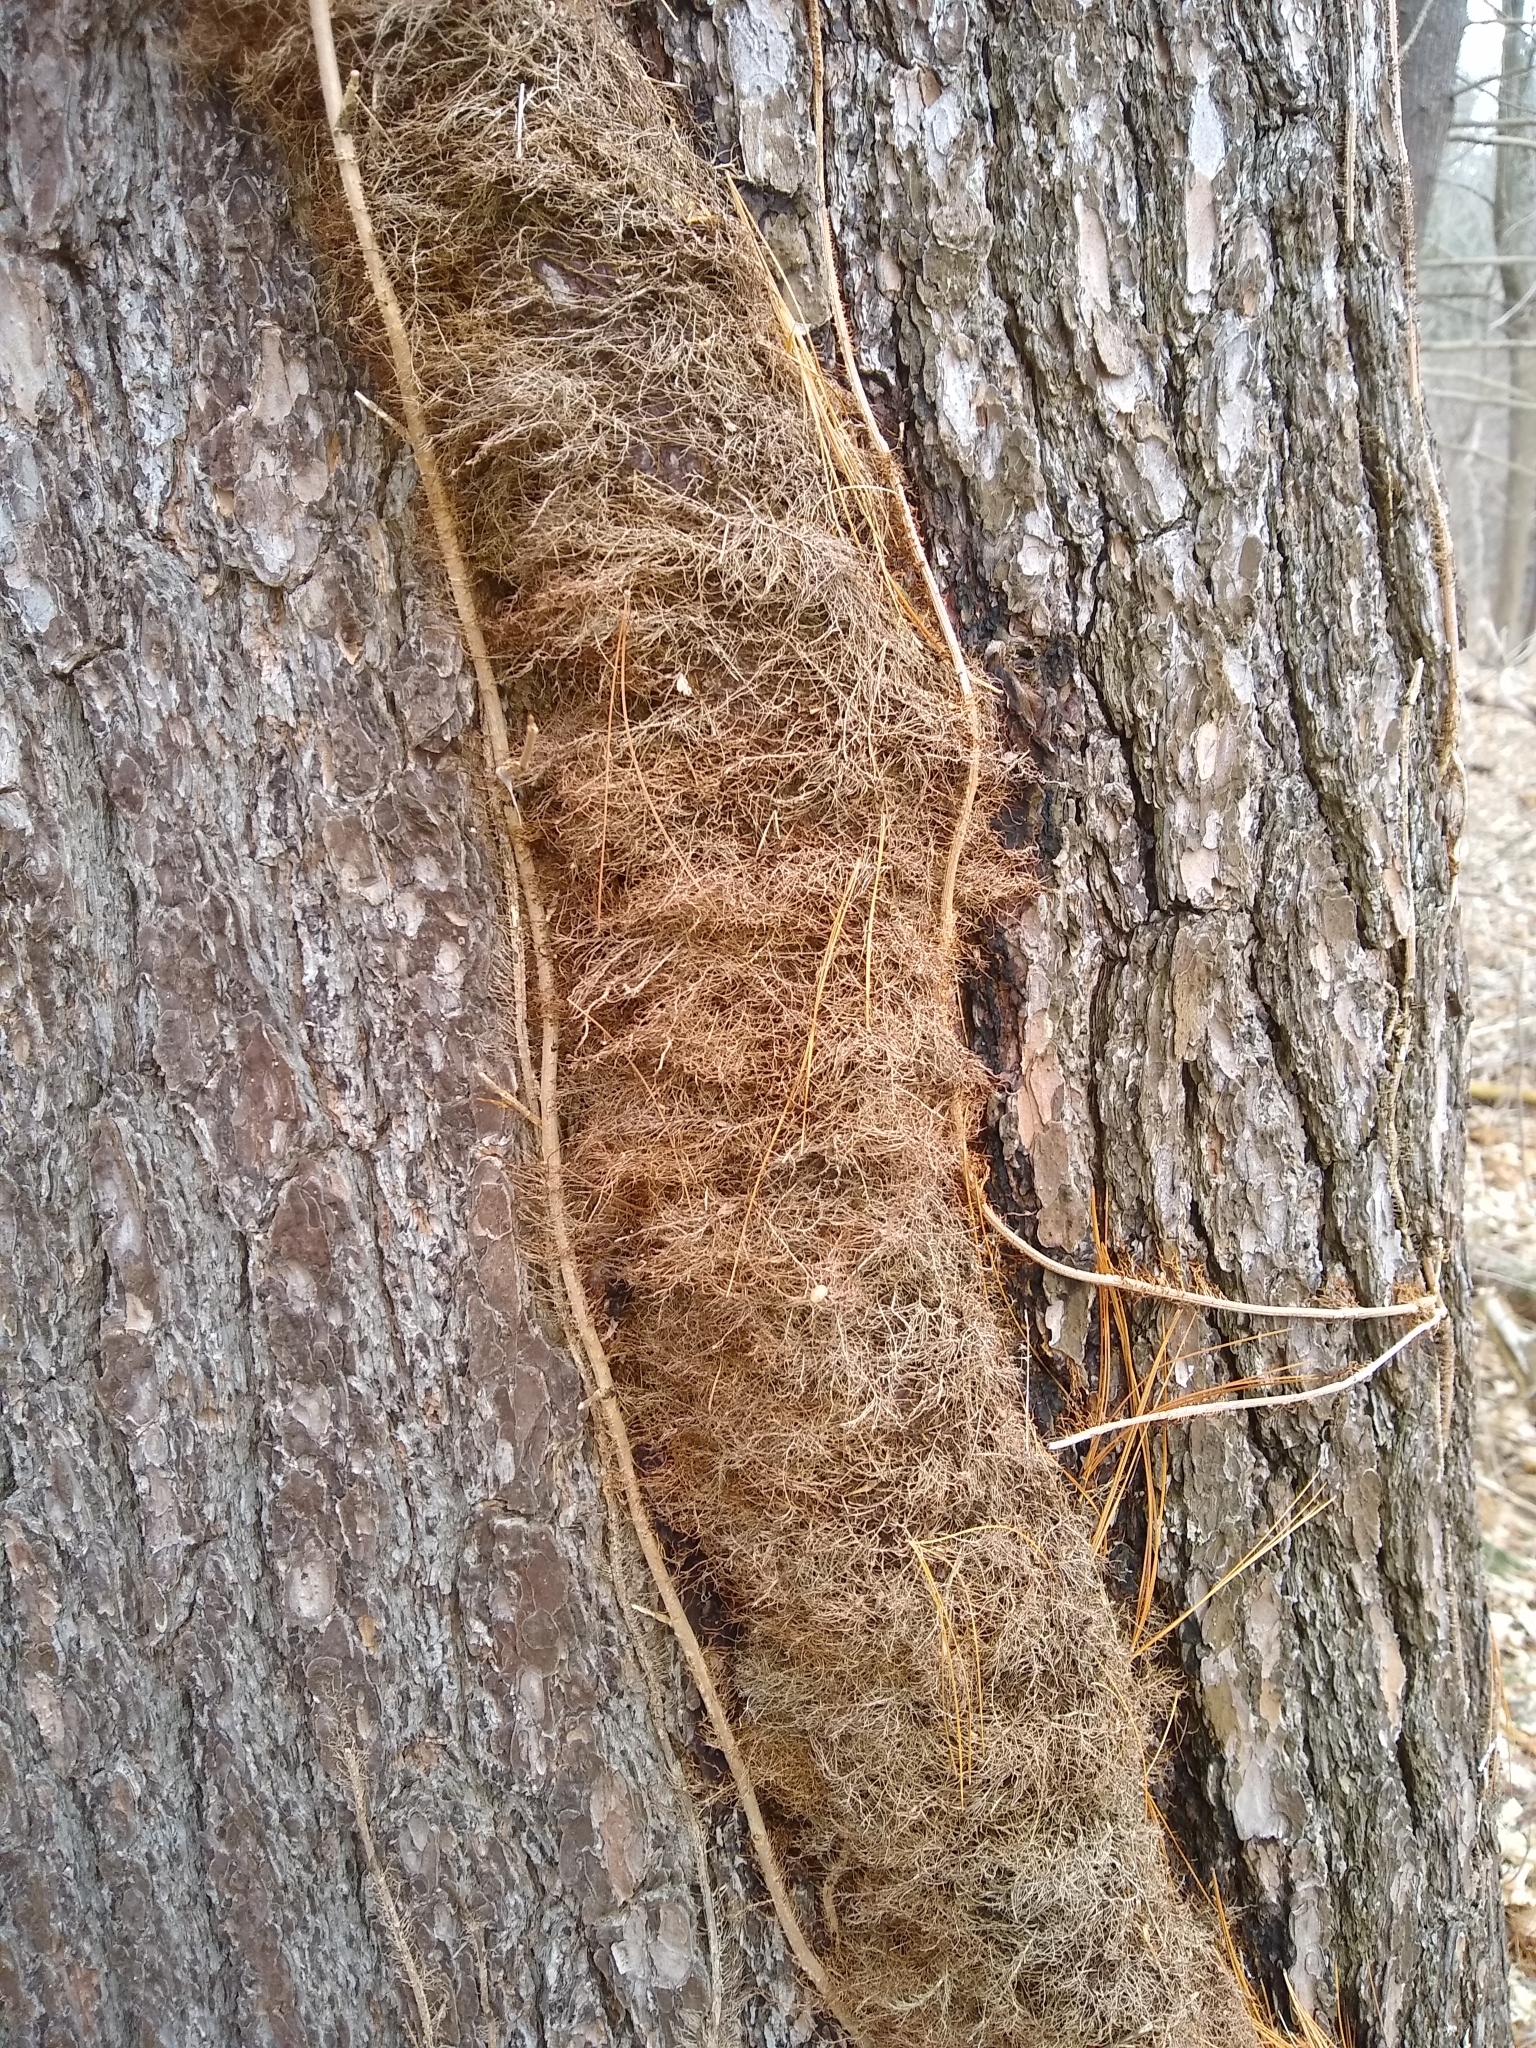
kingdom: Plantae
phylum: Tracheophyta
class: Magnoliopsida
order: Sapindales
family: Anacardiaceae
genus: Toxicodendron
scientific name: Toxicodendron radicans
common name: Poison ivy
